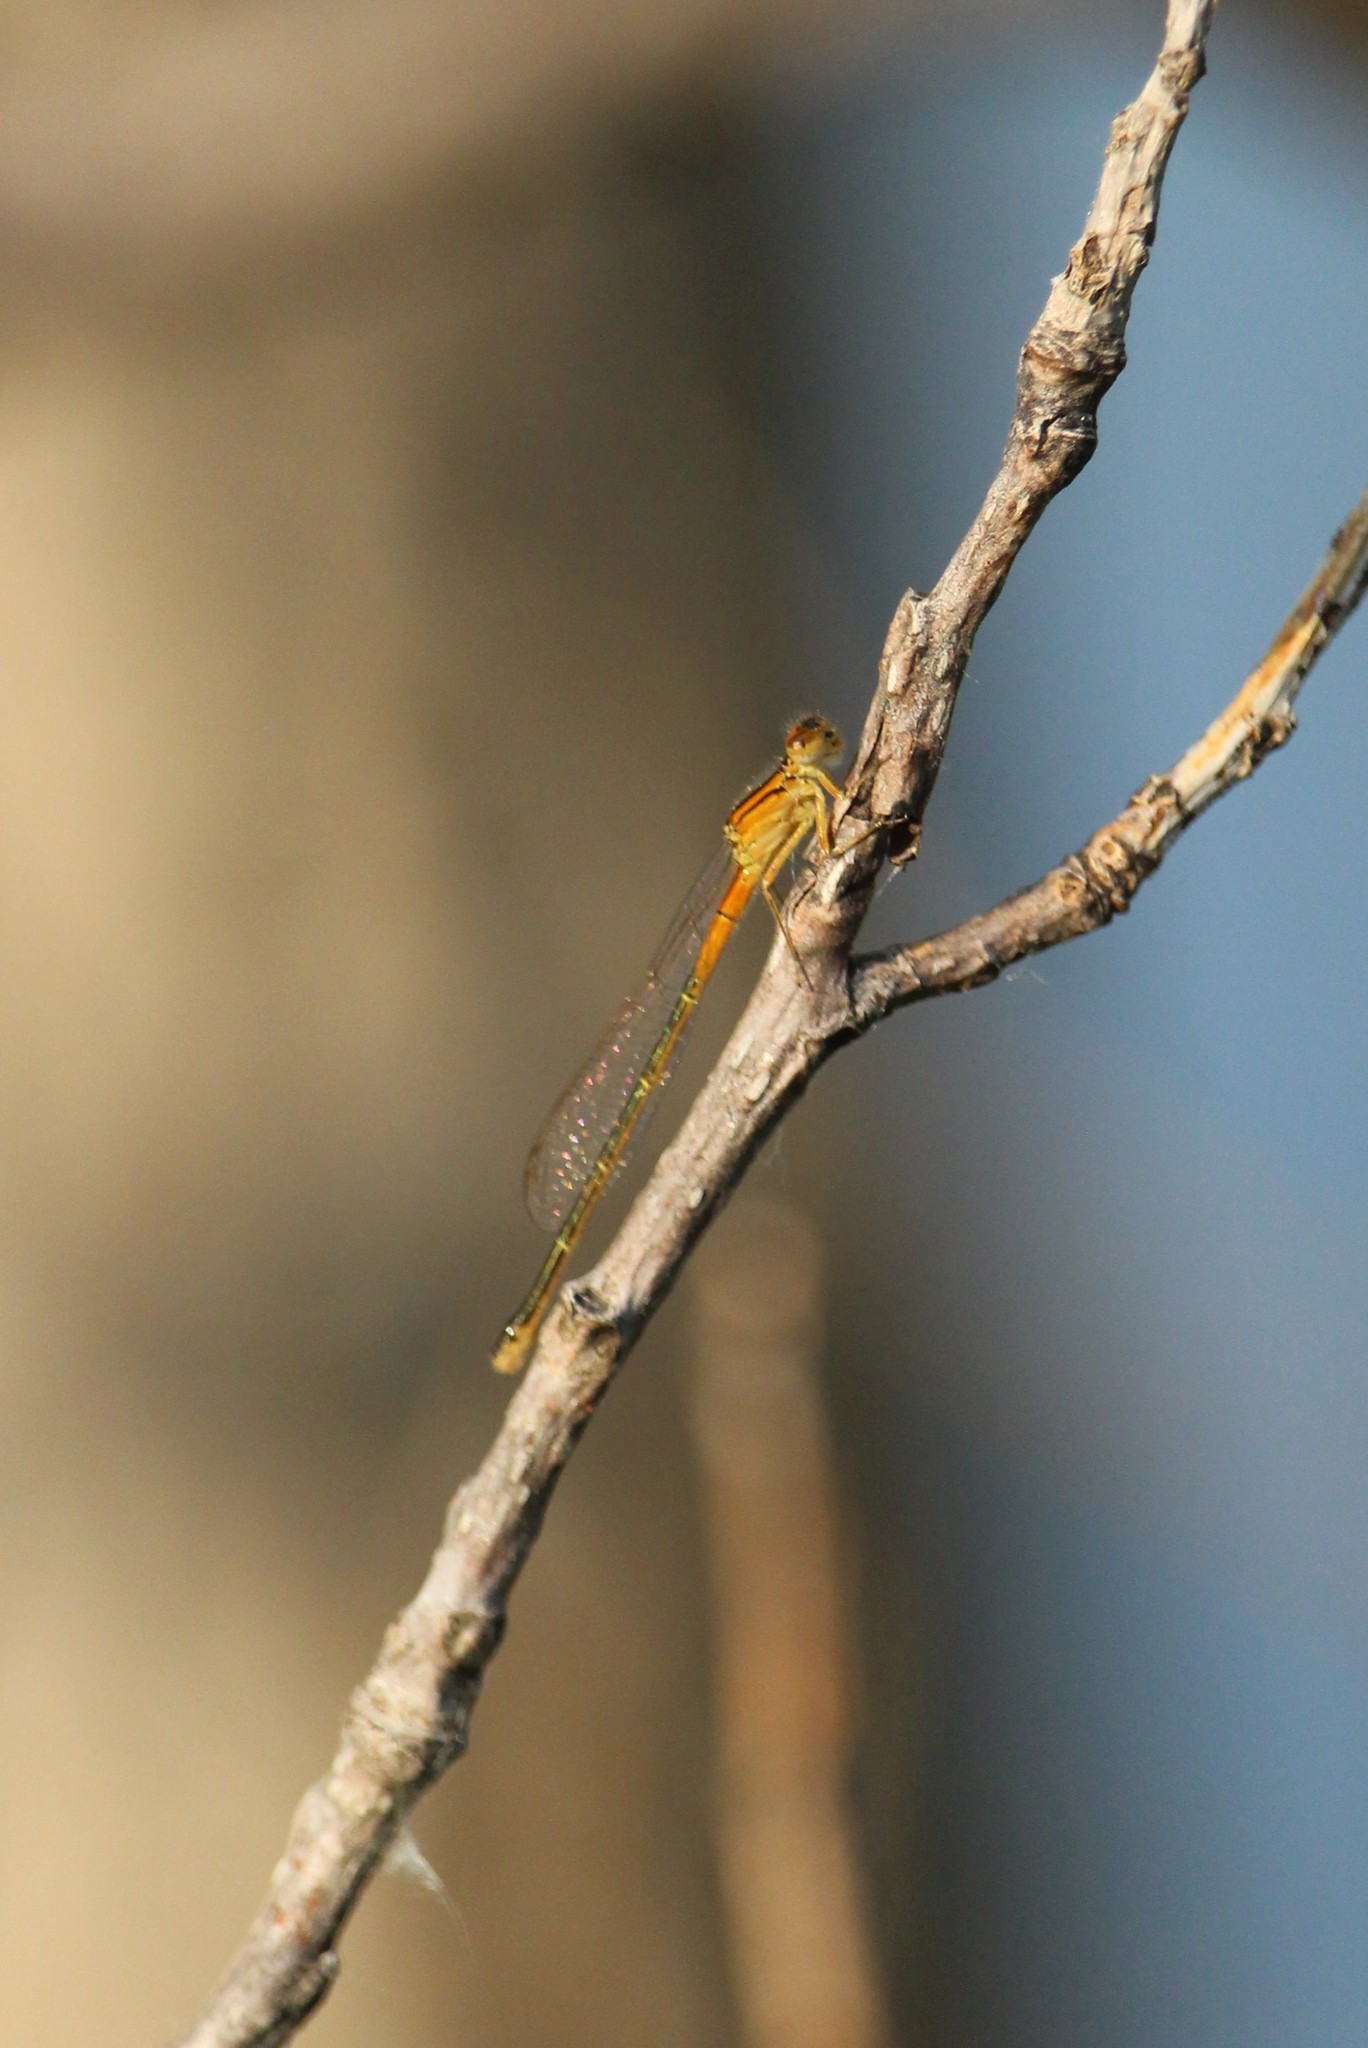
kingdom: Animalia
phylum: Arthropoda
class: Insecta
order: Odonata
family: Coenagrionidae
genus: Ischnura
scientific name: Ischnura verticalis
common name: Eastern forktail
